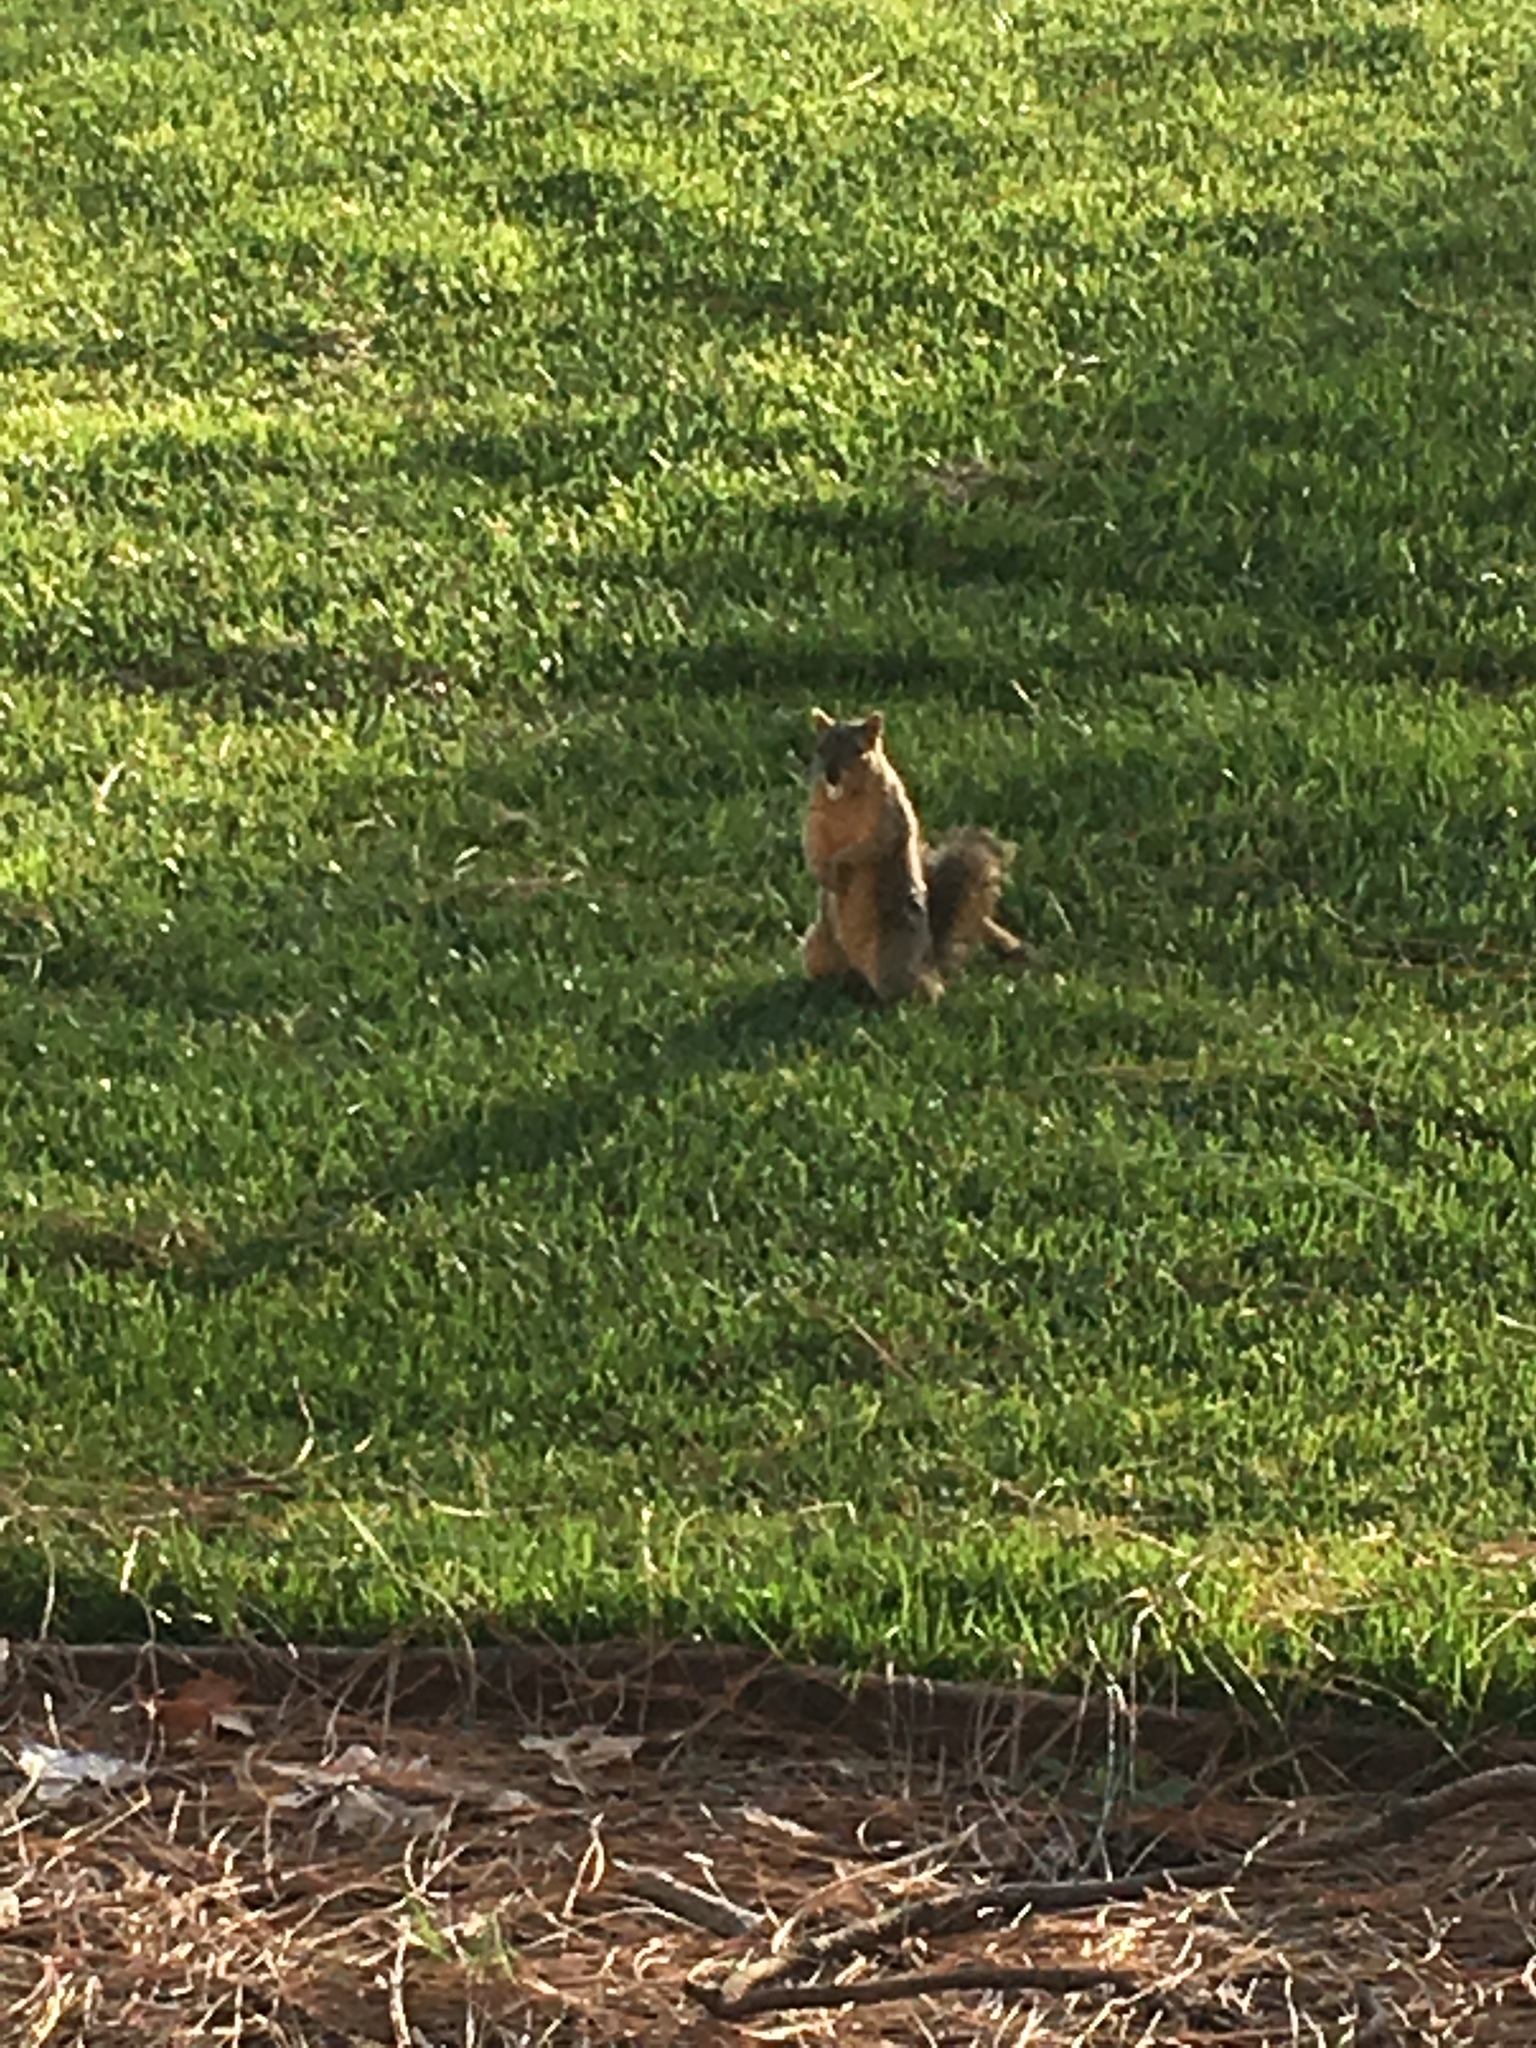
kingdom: Animalia
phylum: Chordata
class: Mammalia
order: Rodentia
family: Sciuridae
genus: Sciurus
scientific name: Sciurus niger
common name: Fox squirrel
